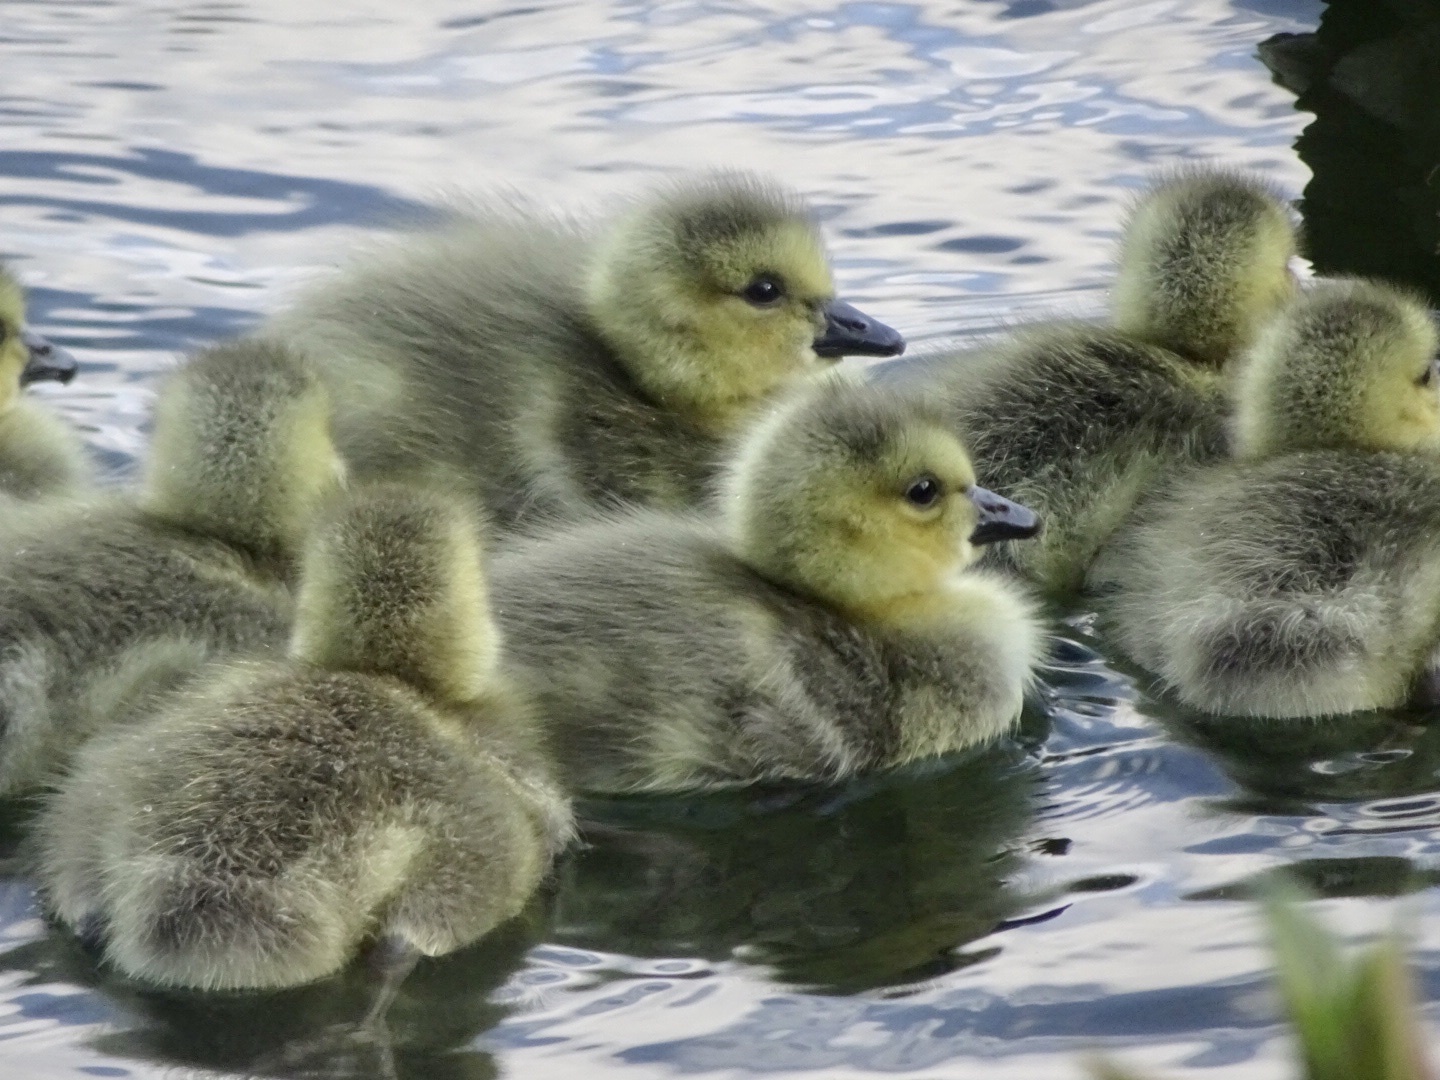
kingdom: Animalia
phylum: Chordata
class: Aves
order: Anseriformes
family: Anatidae
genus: Branta
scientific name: Branta canadensis
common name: Canada goose
